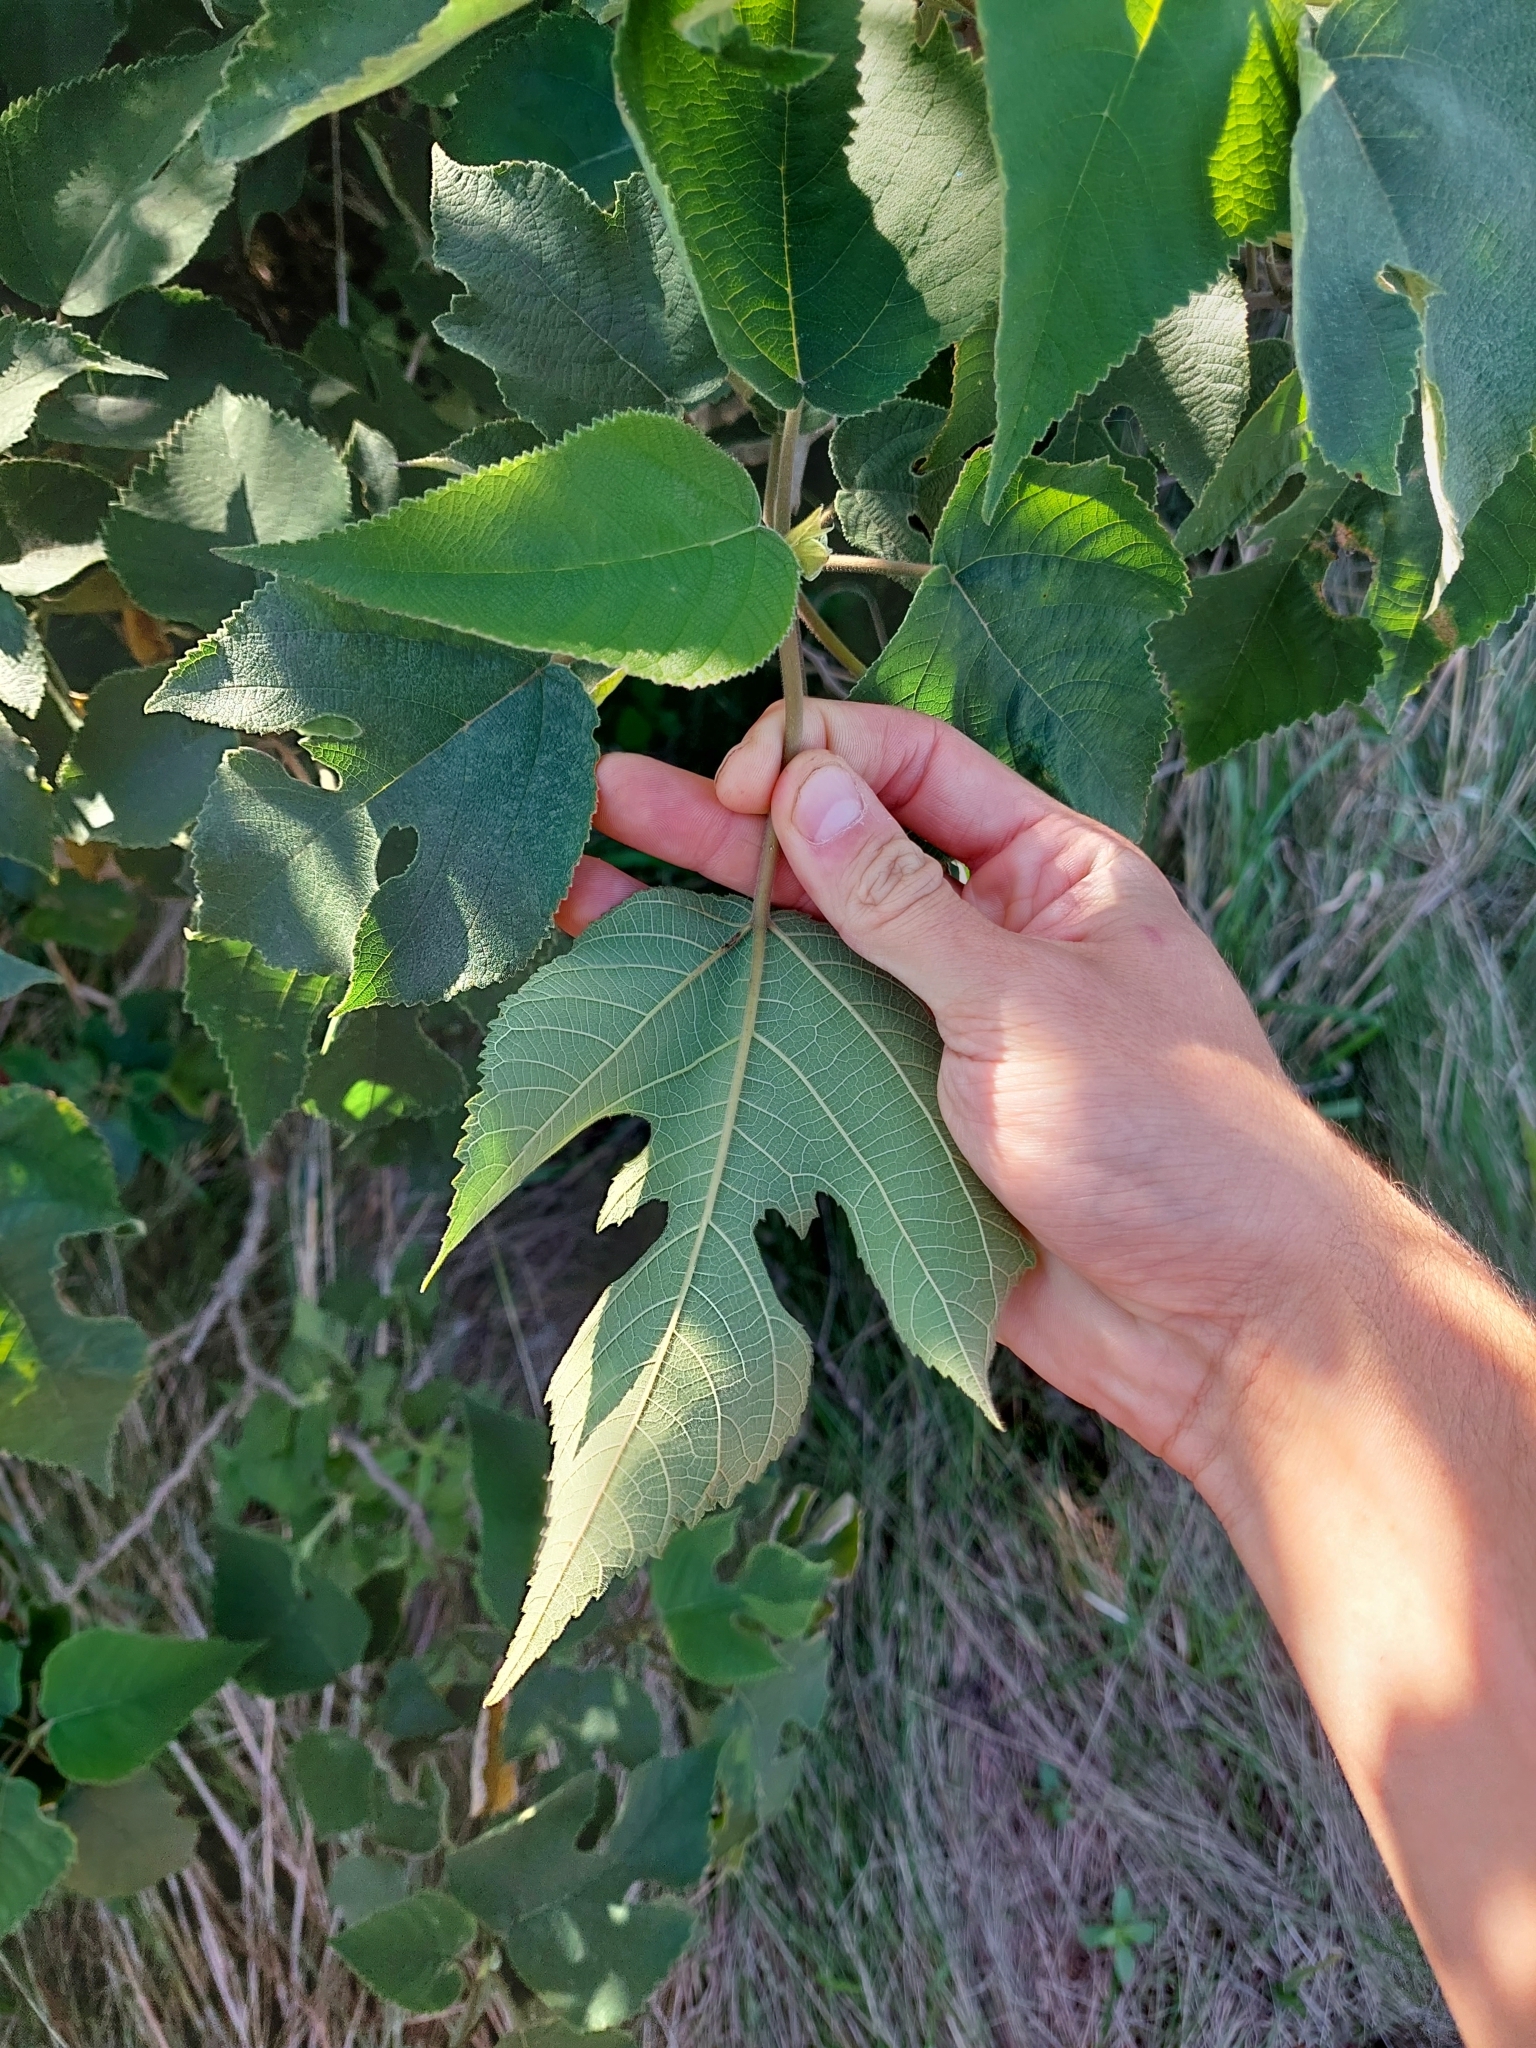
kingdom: Plantae
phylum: Tracheophyta
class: Magnoliopsida
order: Rosales
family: Moraceae
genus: Broussonetia
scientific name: Broussonetia papyrifera
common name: Paper mulberry
